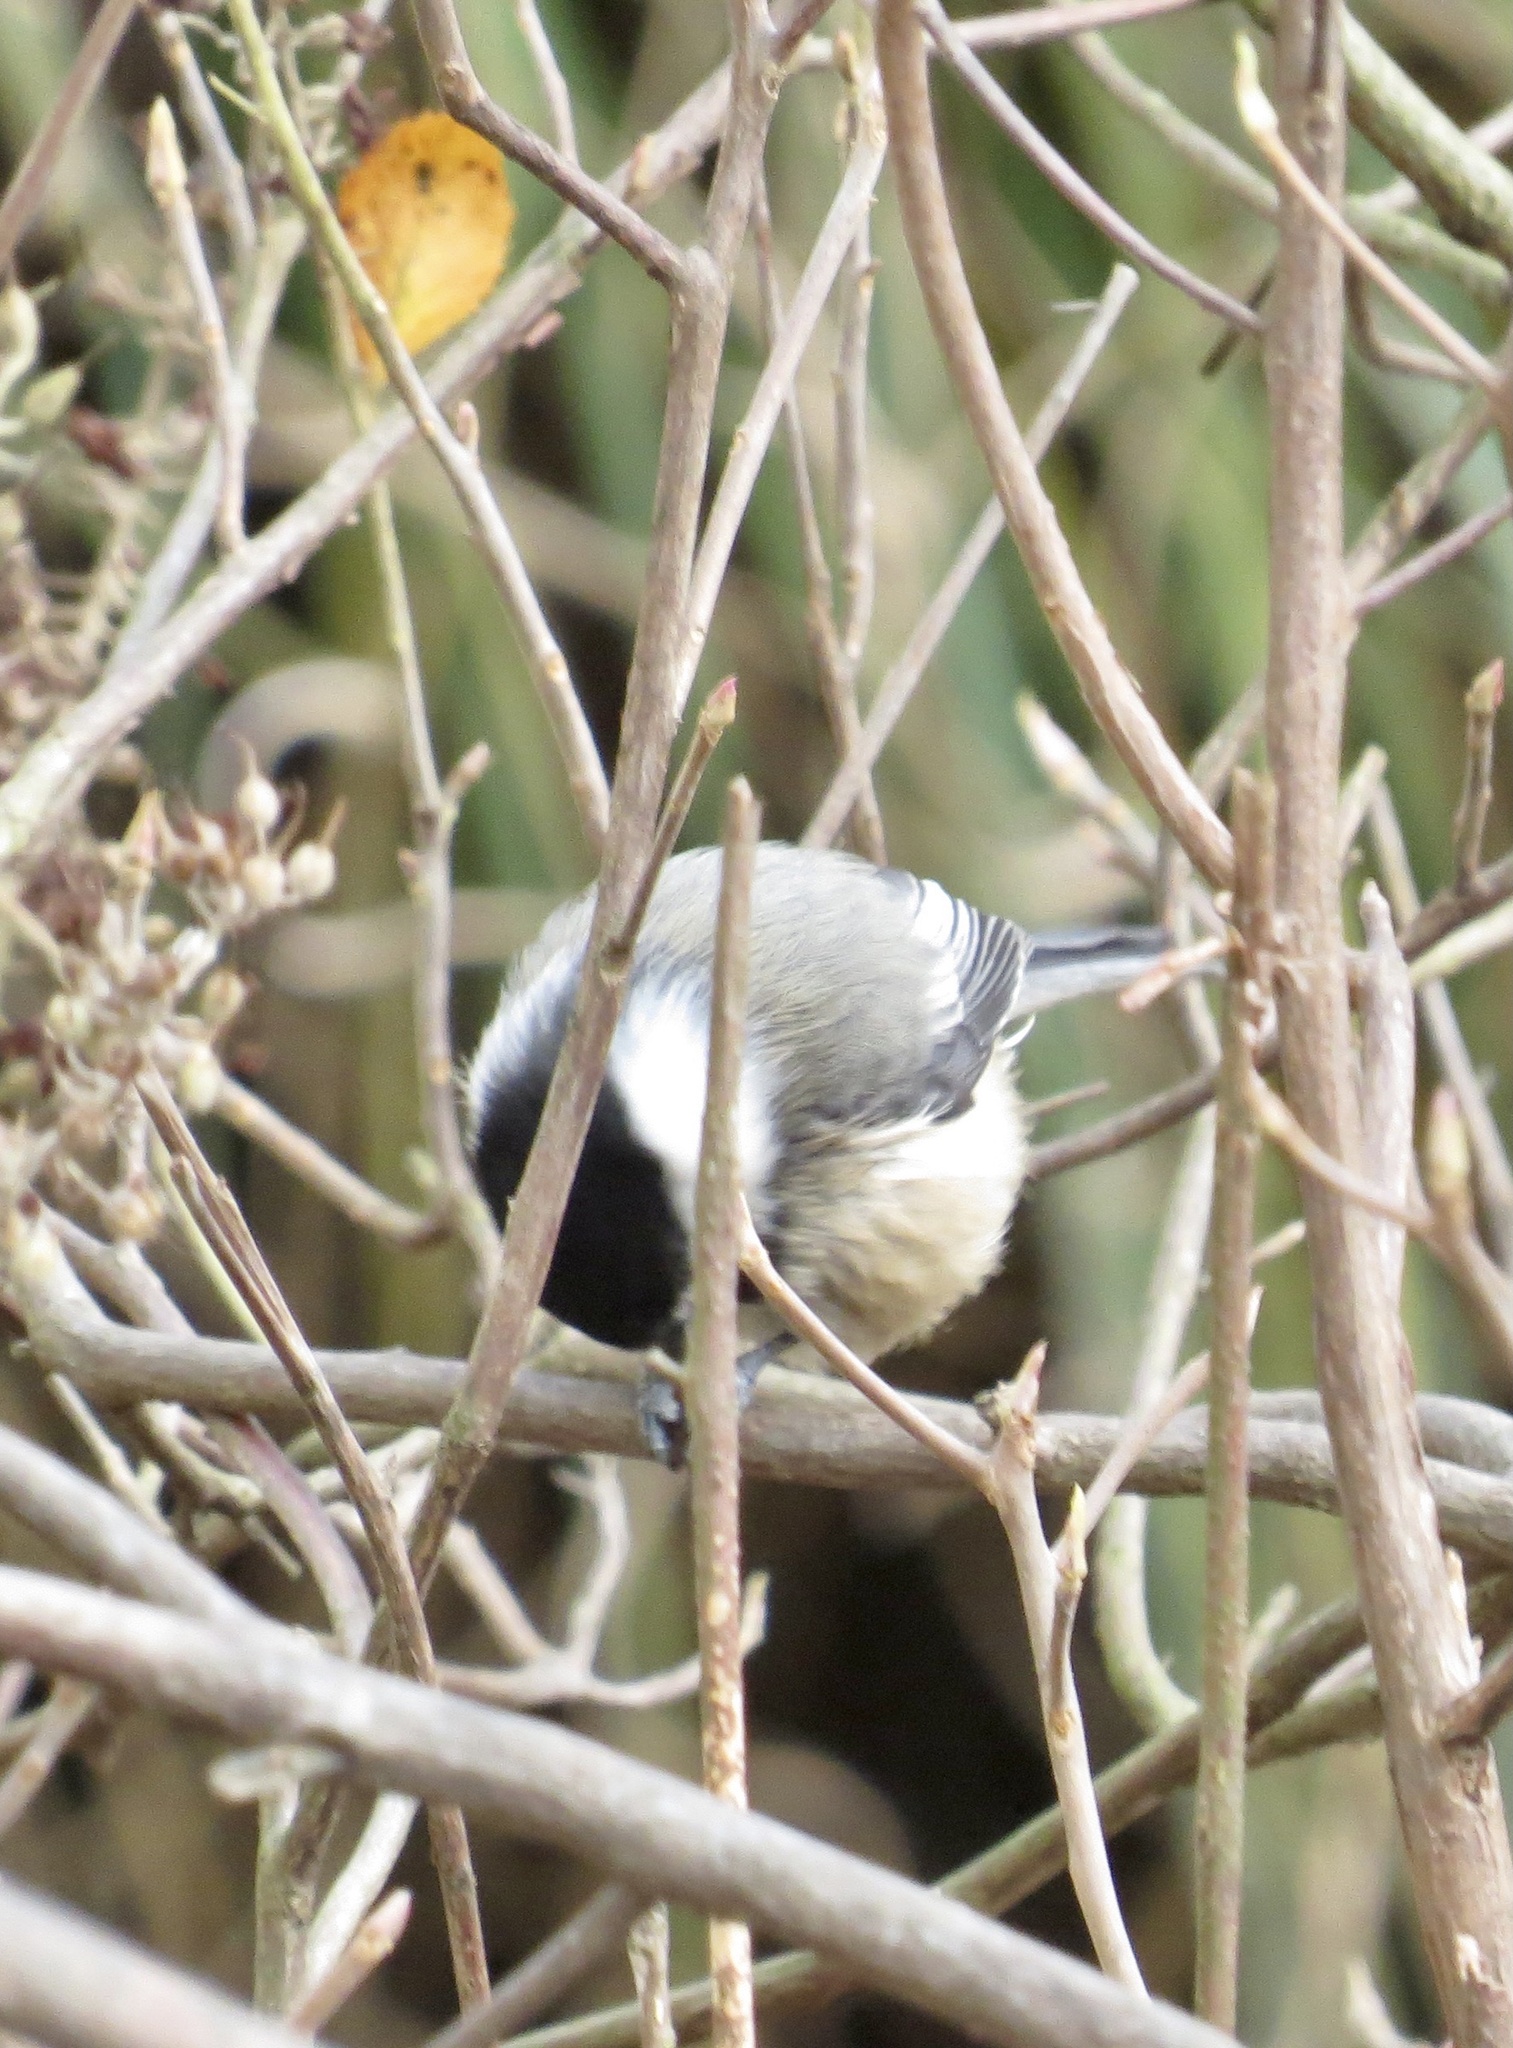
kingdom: Animalia
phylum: Chordata
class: Aves
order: Passeriformes
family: Paridae
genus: Poecile
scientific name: Poecile atricapillus
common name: Black-capped chickadee
